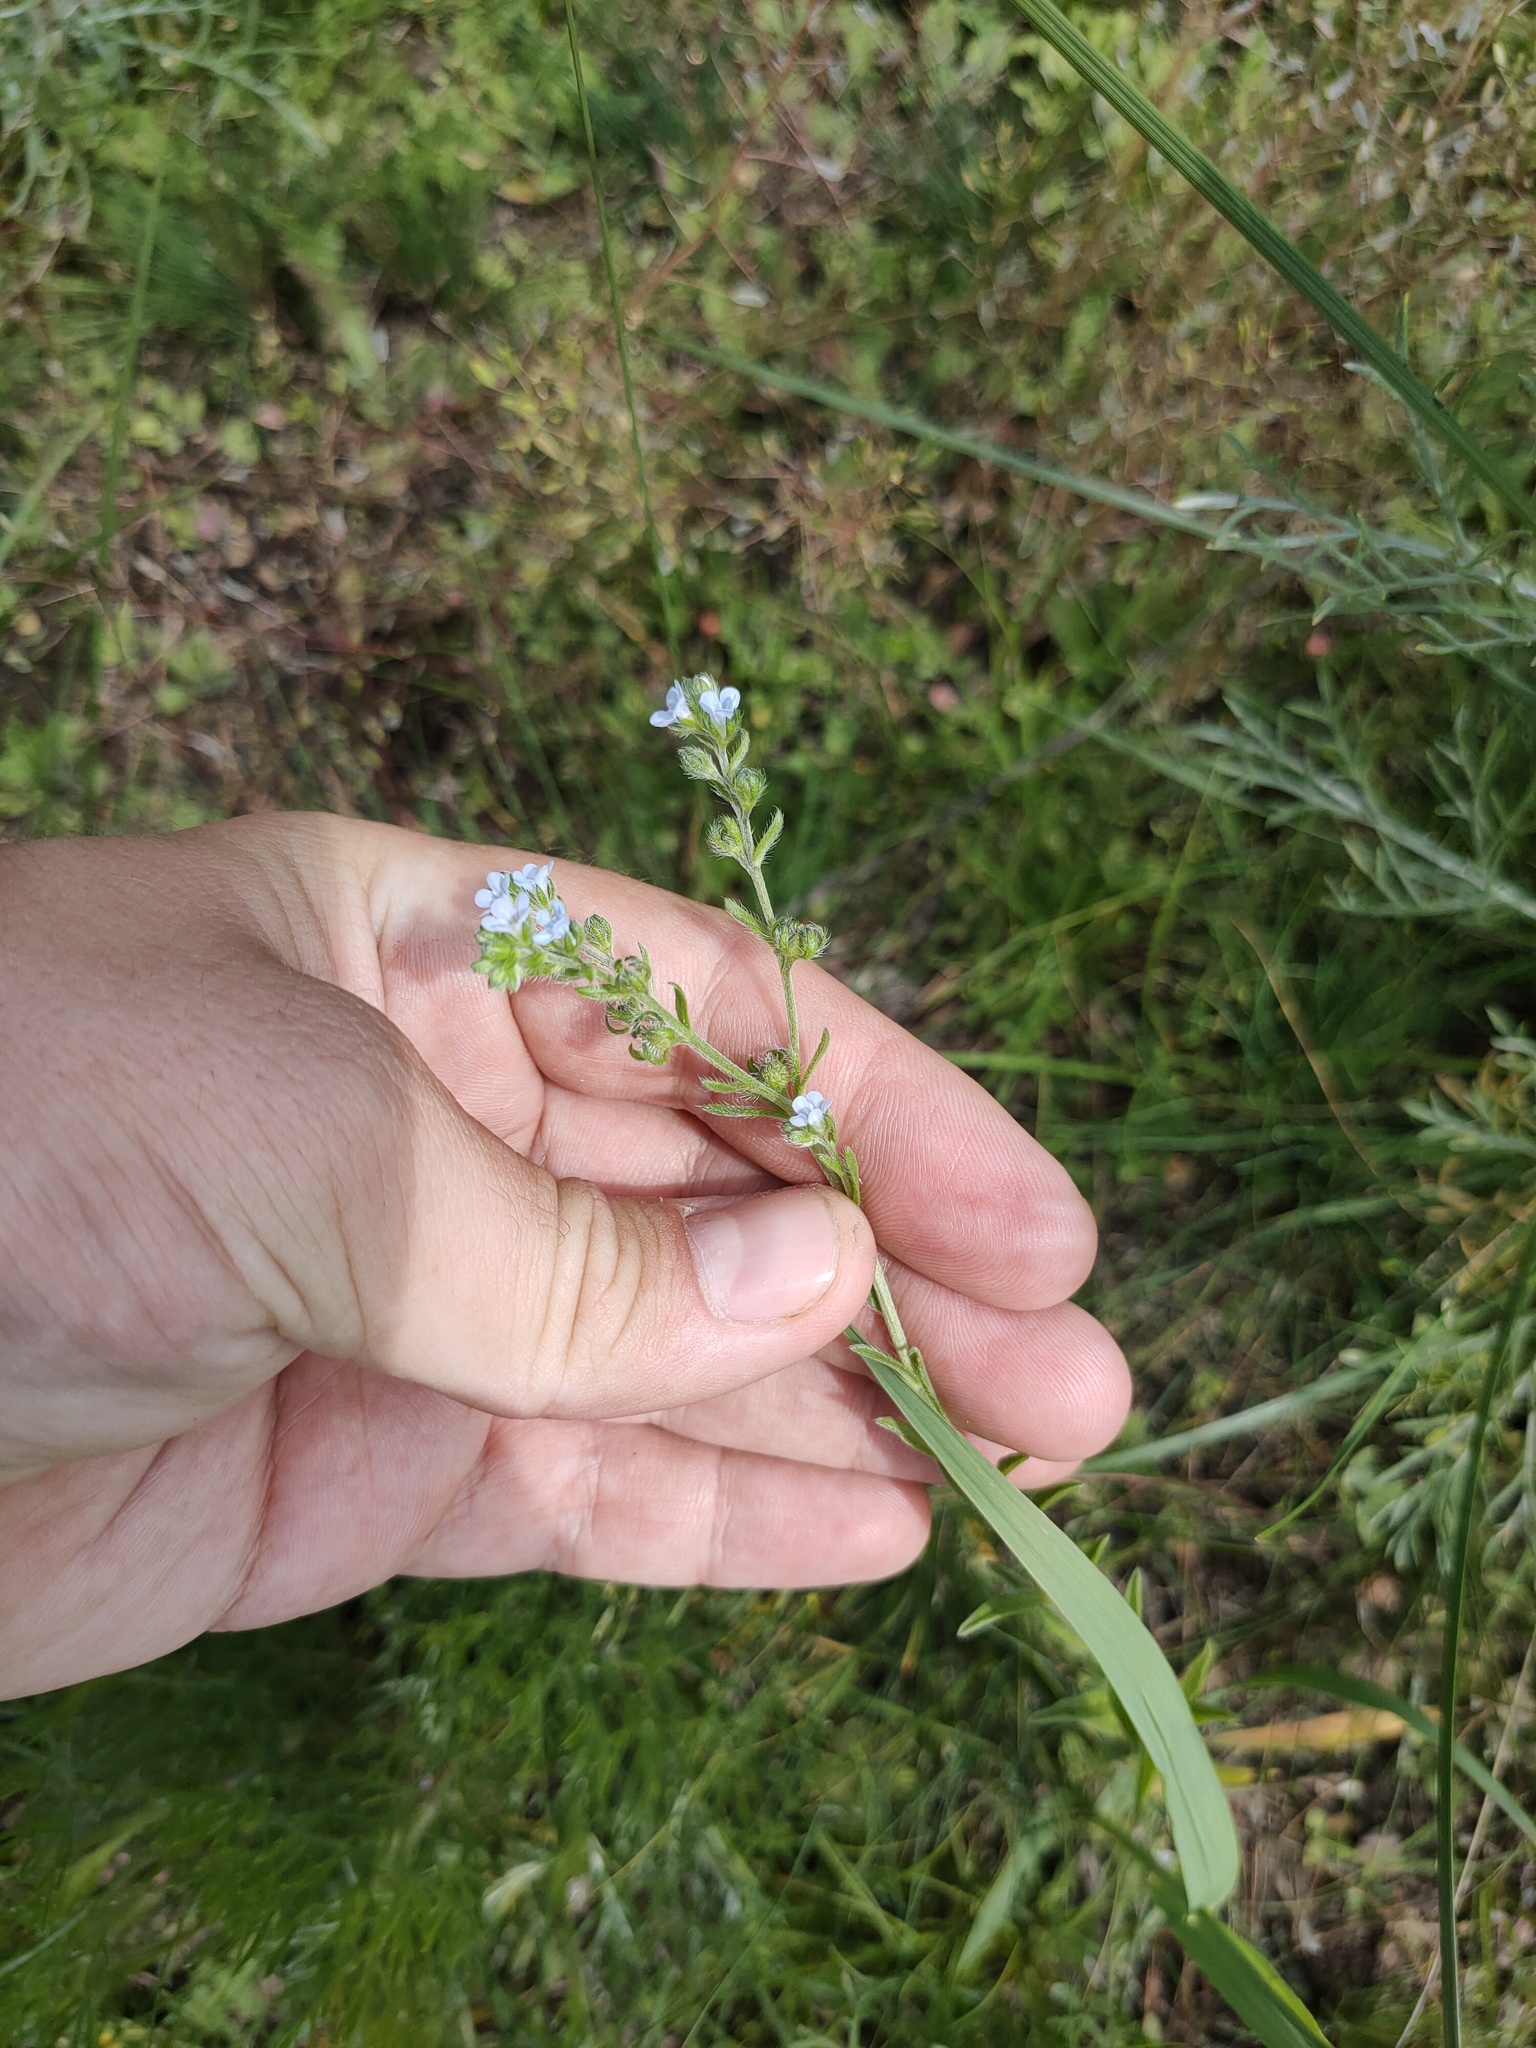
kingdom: Plantae
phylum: Tracheophyta
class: Magnoliopsida
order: Boraginales
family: Boraginaceae
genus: Lappula
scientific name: Lappula squarrosa
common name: European stickseed
